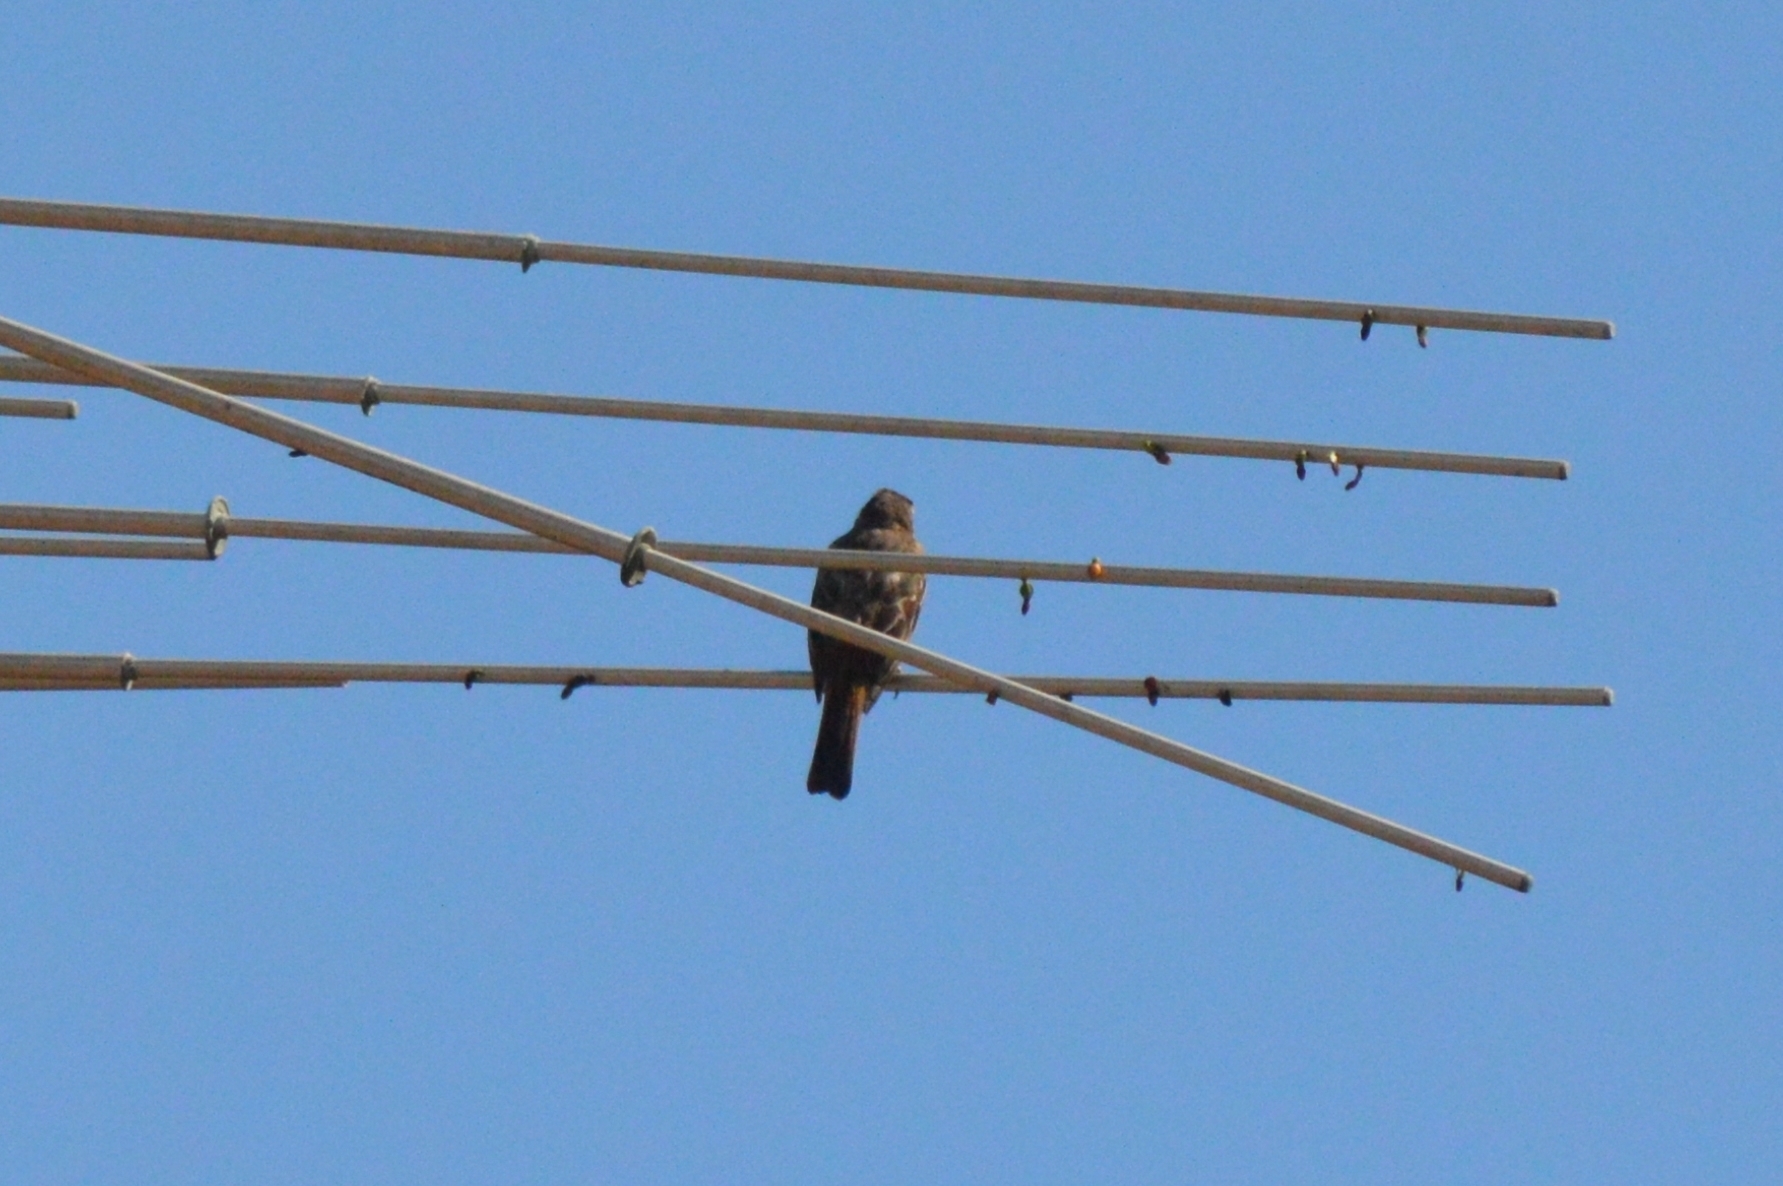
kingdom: Animalia
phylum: Chordata
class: Aves
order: Passeriformes
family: Tyrannidae
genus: Empidonomus
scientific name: Empidonomus varius
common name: Variegated flycatcher
